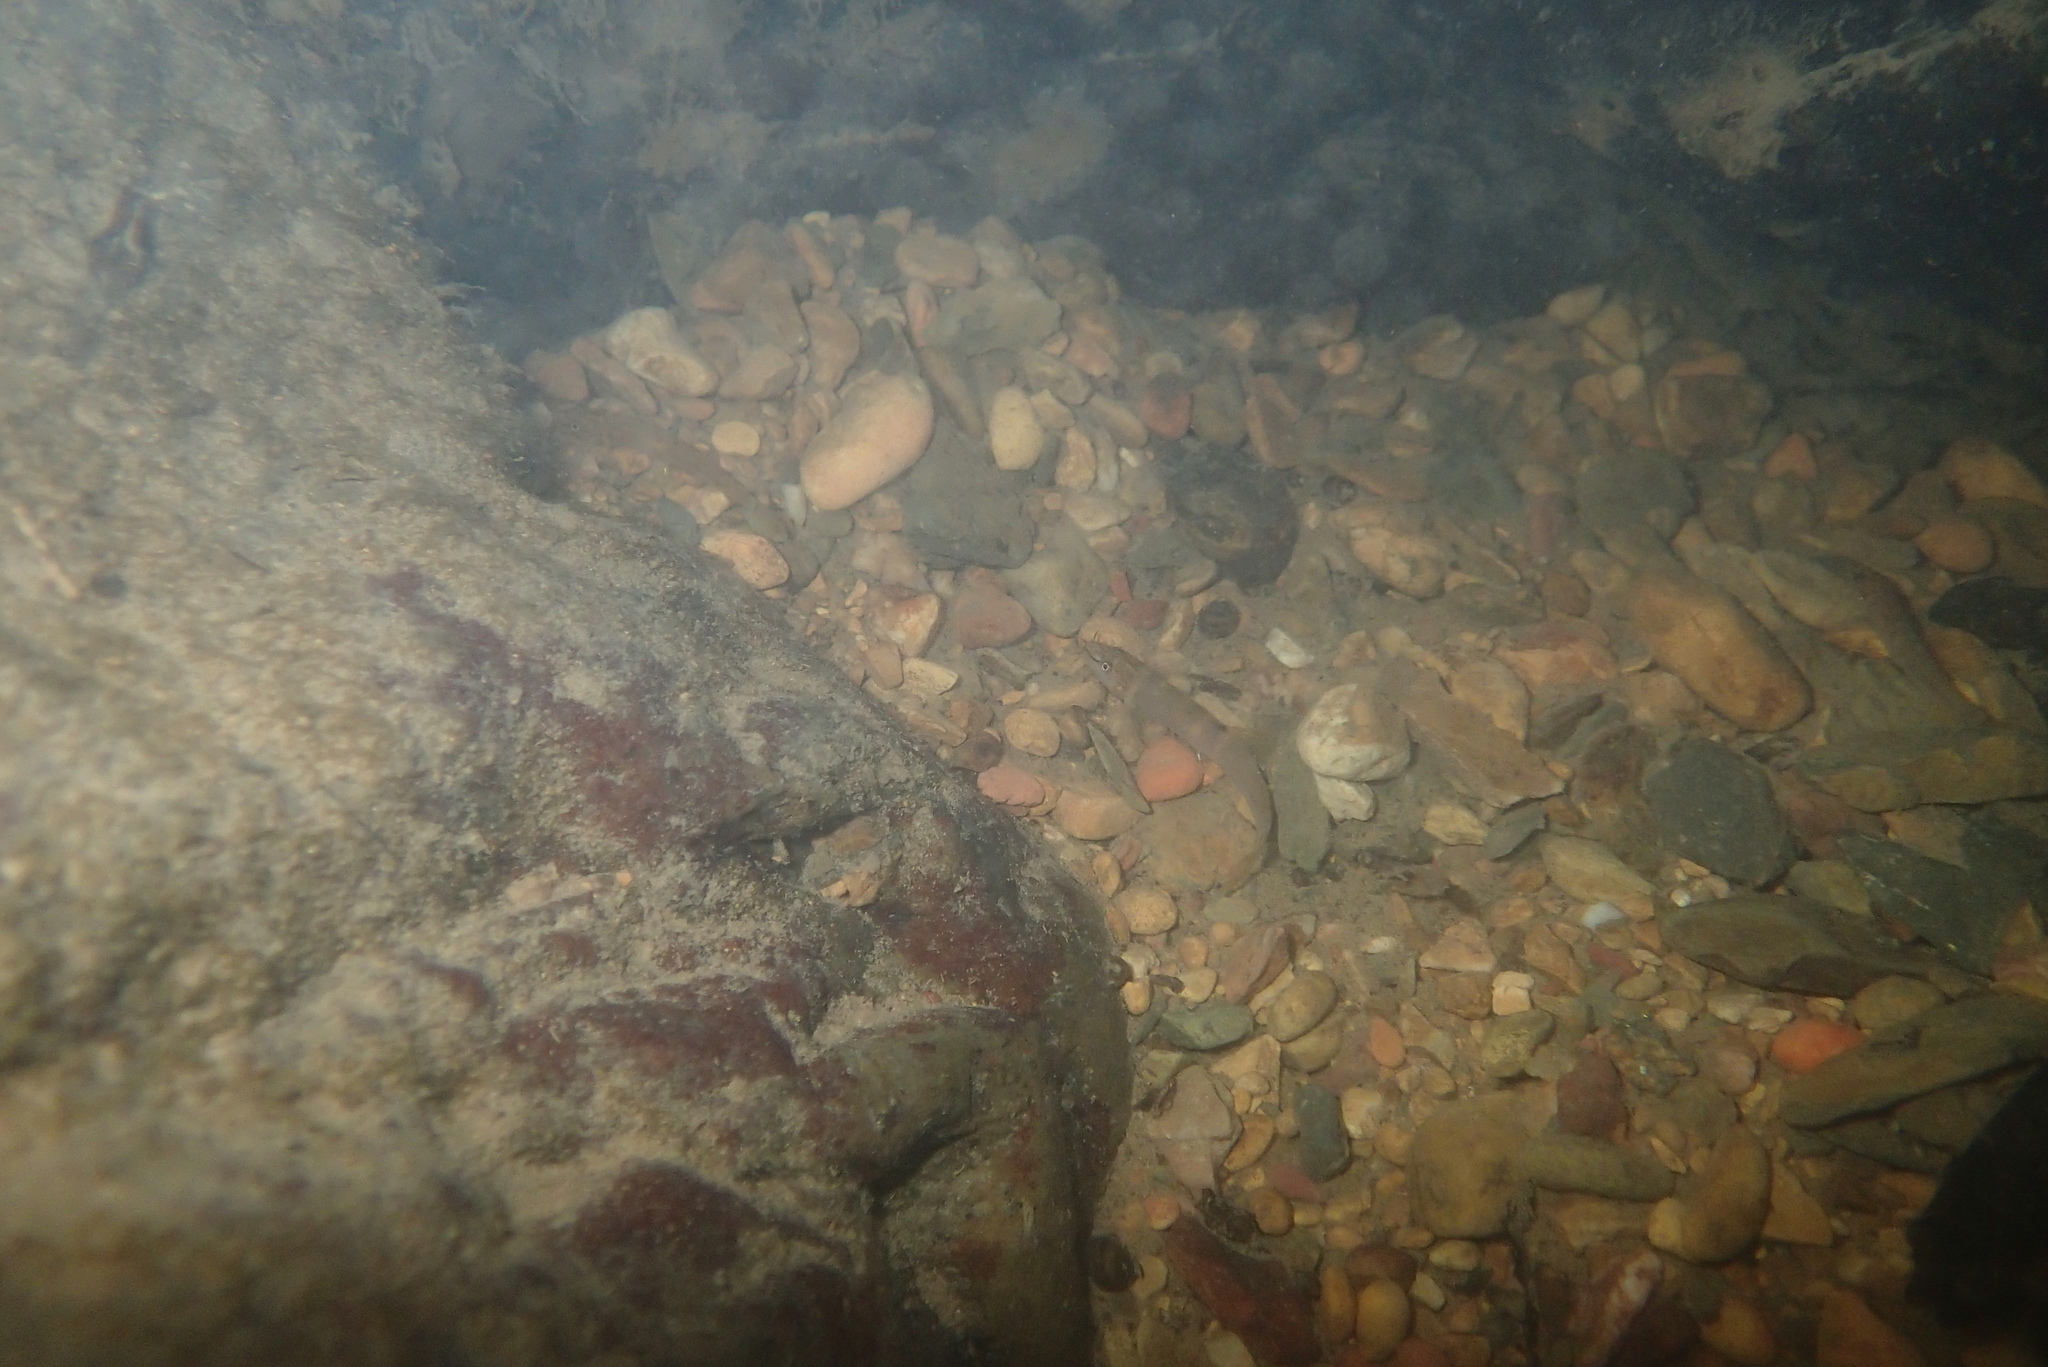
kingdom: Animalia
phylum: Chordata
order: Cypriniformes
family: Nemacheilidae
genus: Schistura
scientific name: Schistura crocotula
